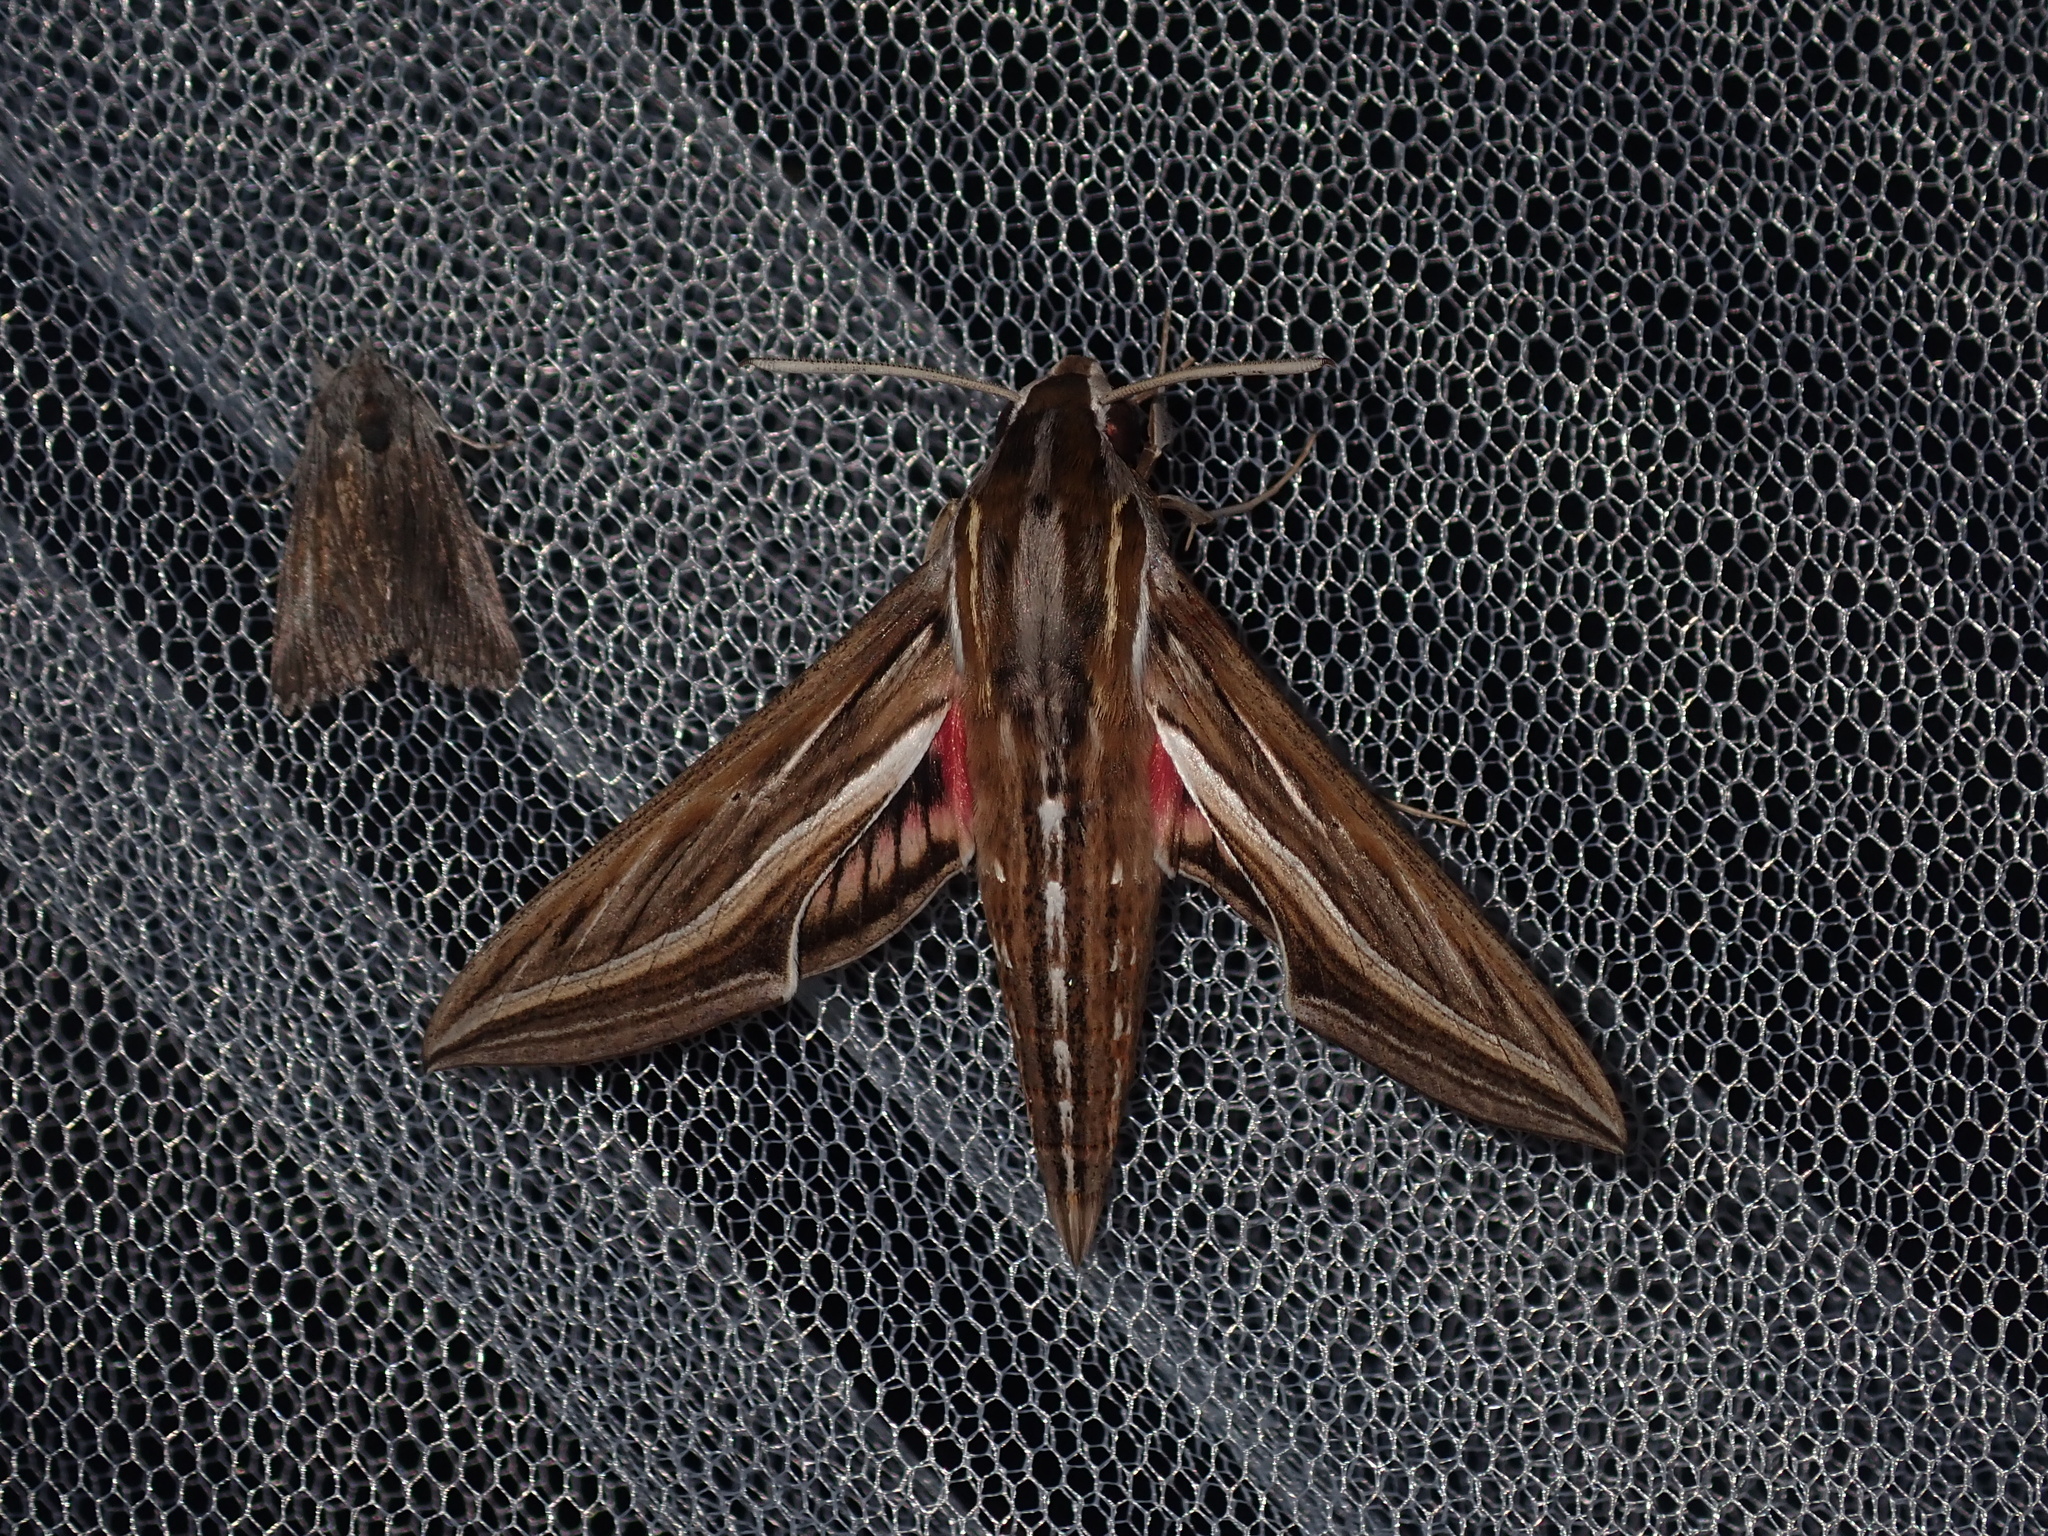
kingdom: Animalia
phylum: Arthropoda
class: Insecta
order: Lepidoptera
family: Sphingidae
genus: Hippotion
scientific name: Hippotion celerio
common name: Silver-striped hawk-moth
